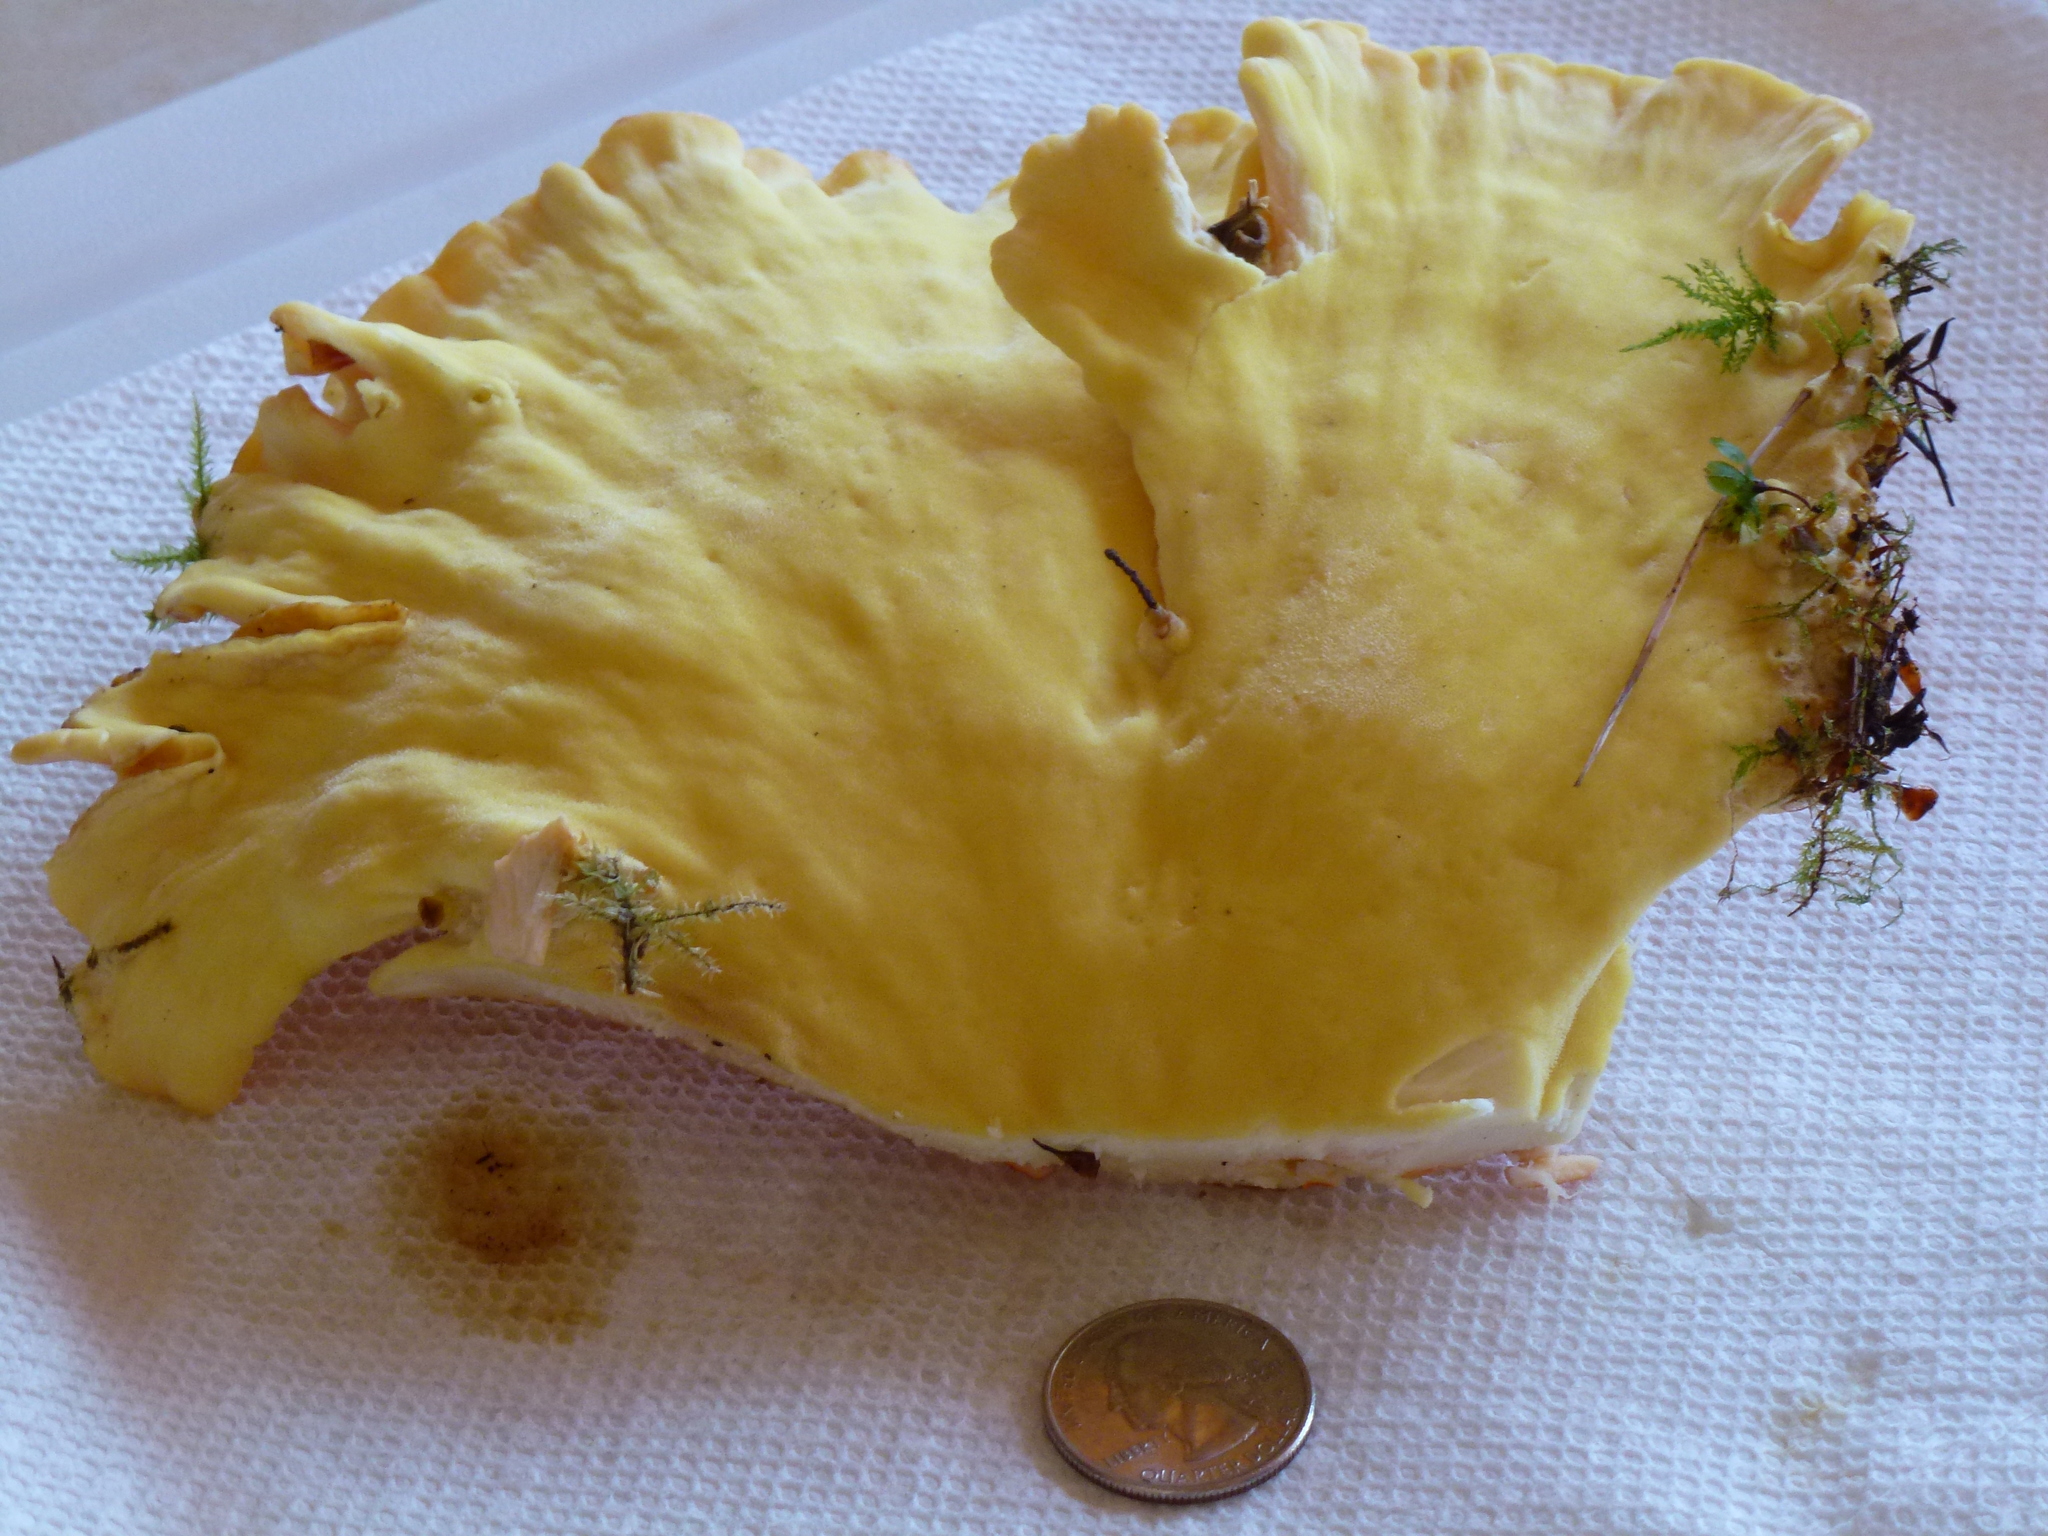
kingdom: Fungi
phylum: Basidiomycota
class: Agaricomycetes
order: Polyporales
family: Laetiporaceae
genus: Laetiporus
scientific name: Laetiporus conifericola
